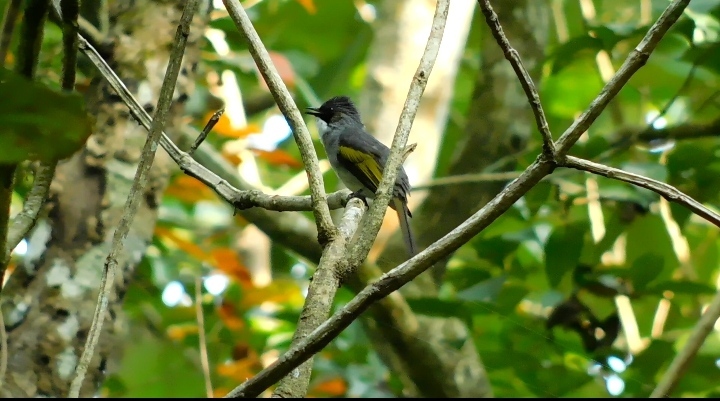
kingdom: Animalia
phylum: Chordata
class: Aves
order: Passeriformes
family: Pycnonotidae
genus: Hemixos
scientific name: Hemixos flavala
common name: Ashy bulbul
